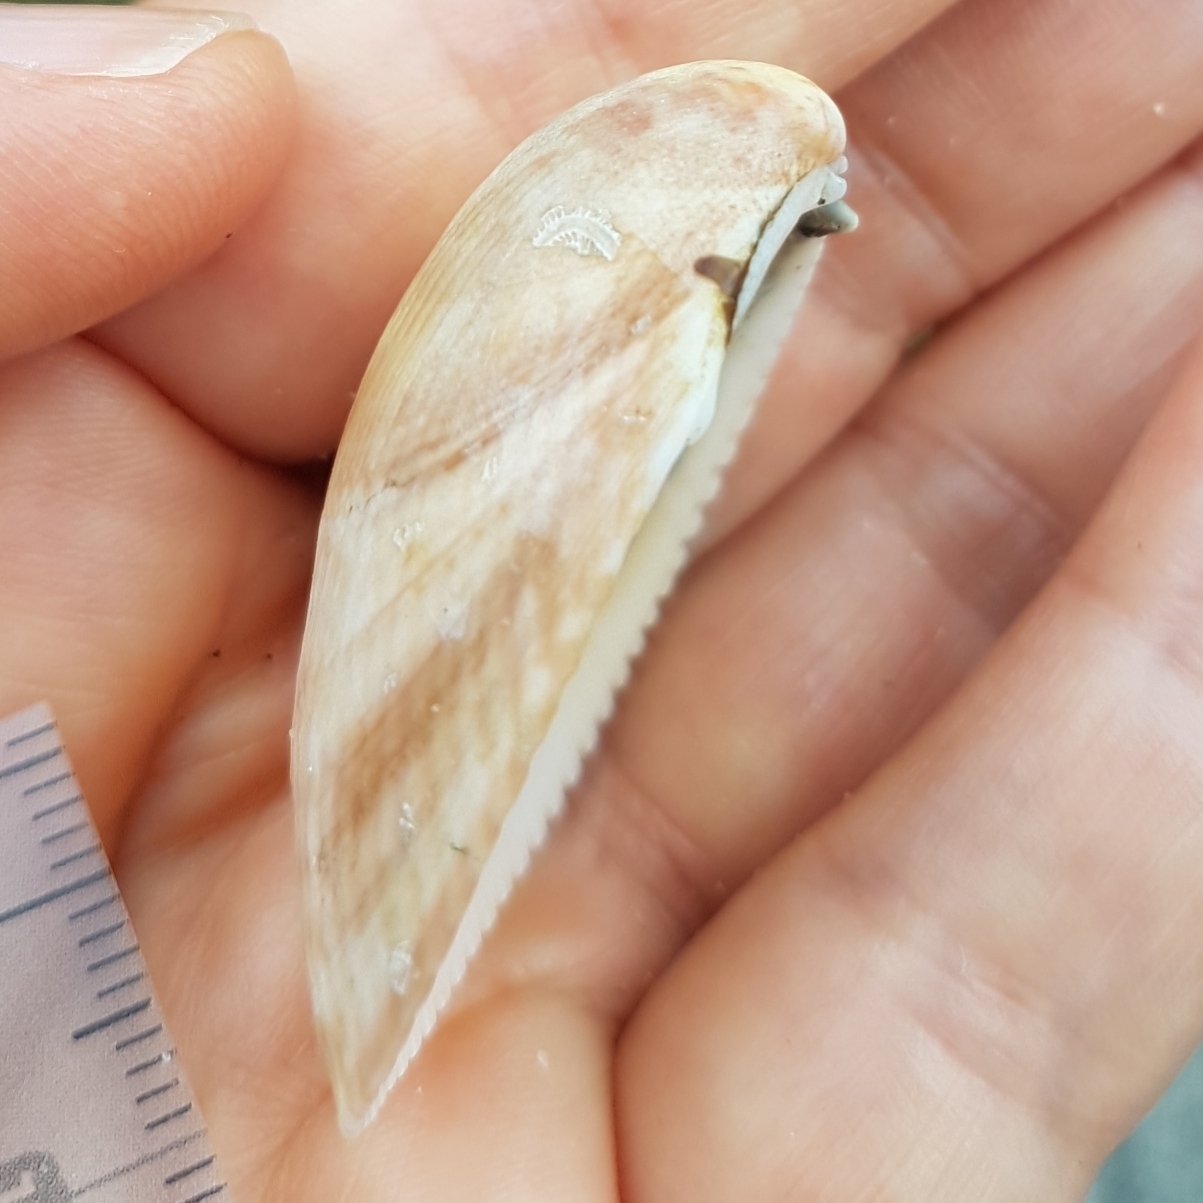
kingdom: Animalia
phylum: Mollusca
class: Bivalvia
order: Cardiida
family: Cardiidae
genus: Laevicardium
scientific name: Laevicardium oblongum
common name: Oblong cockle
